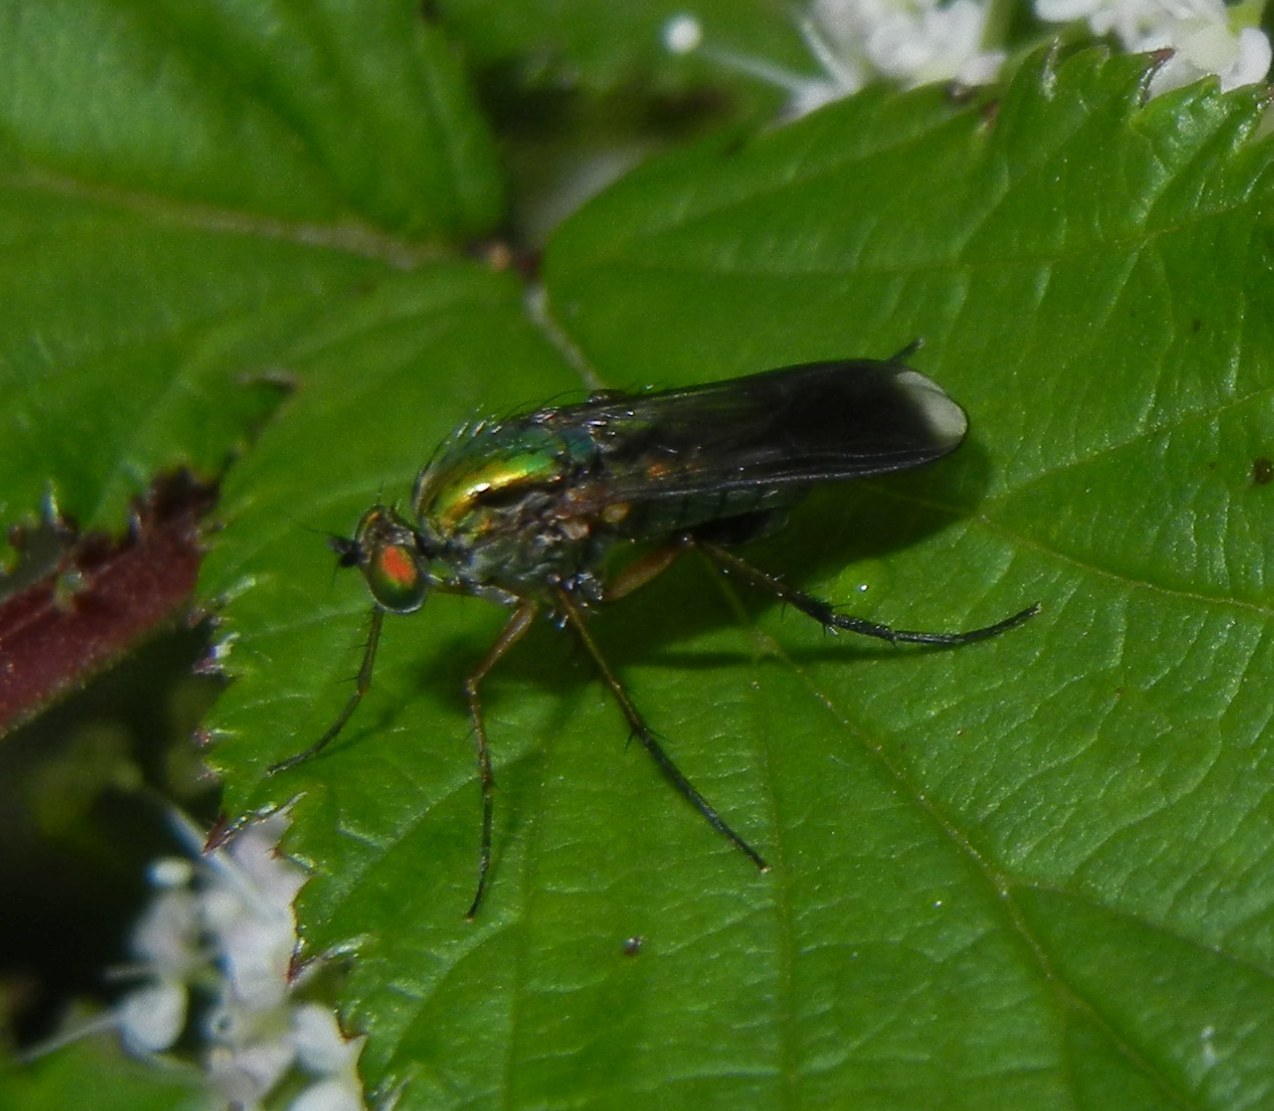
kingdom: Animalia
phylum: Arthropoda
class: Insecta
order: Diptera
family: Dolichopodidae
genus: Poecilobothrus
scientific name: Poecilobothrus nobilitatus
